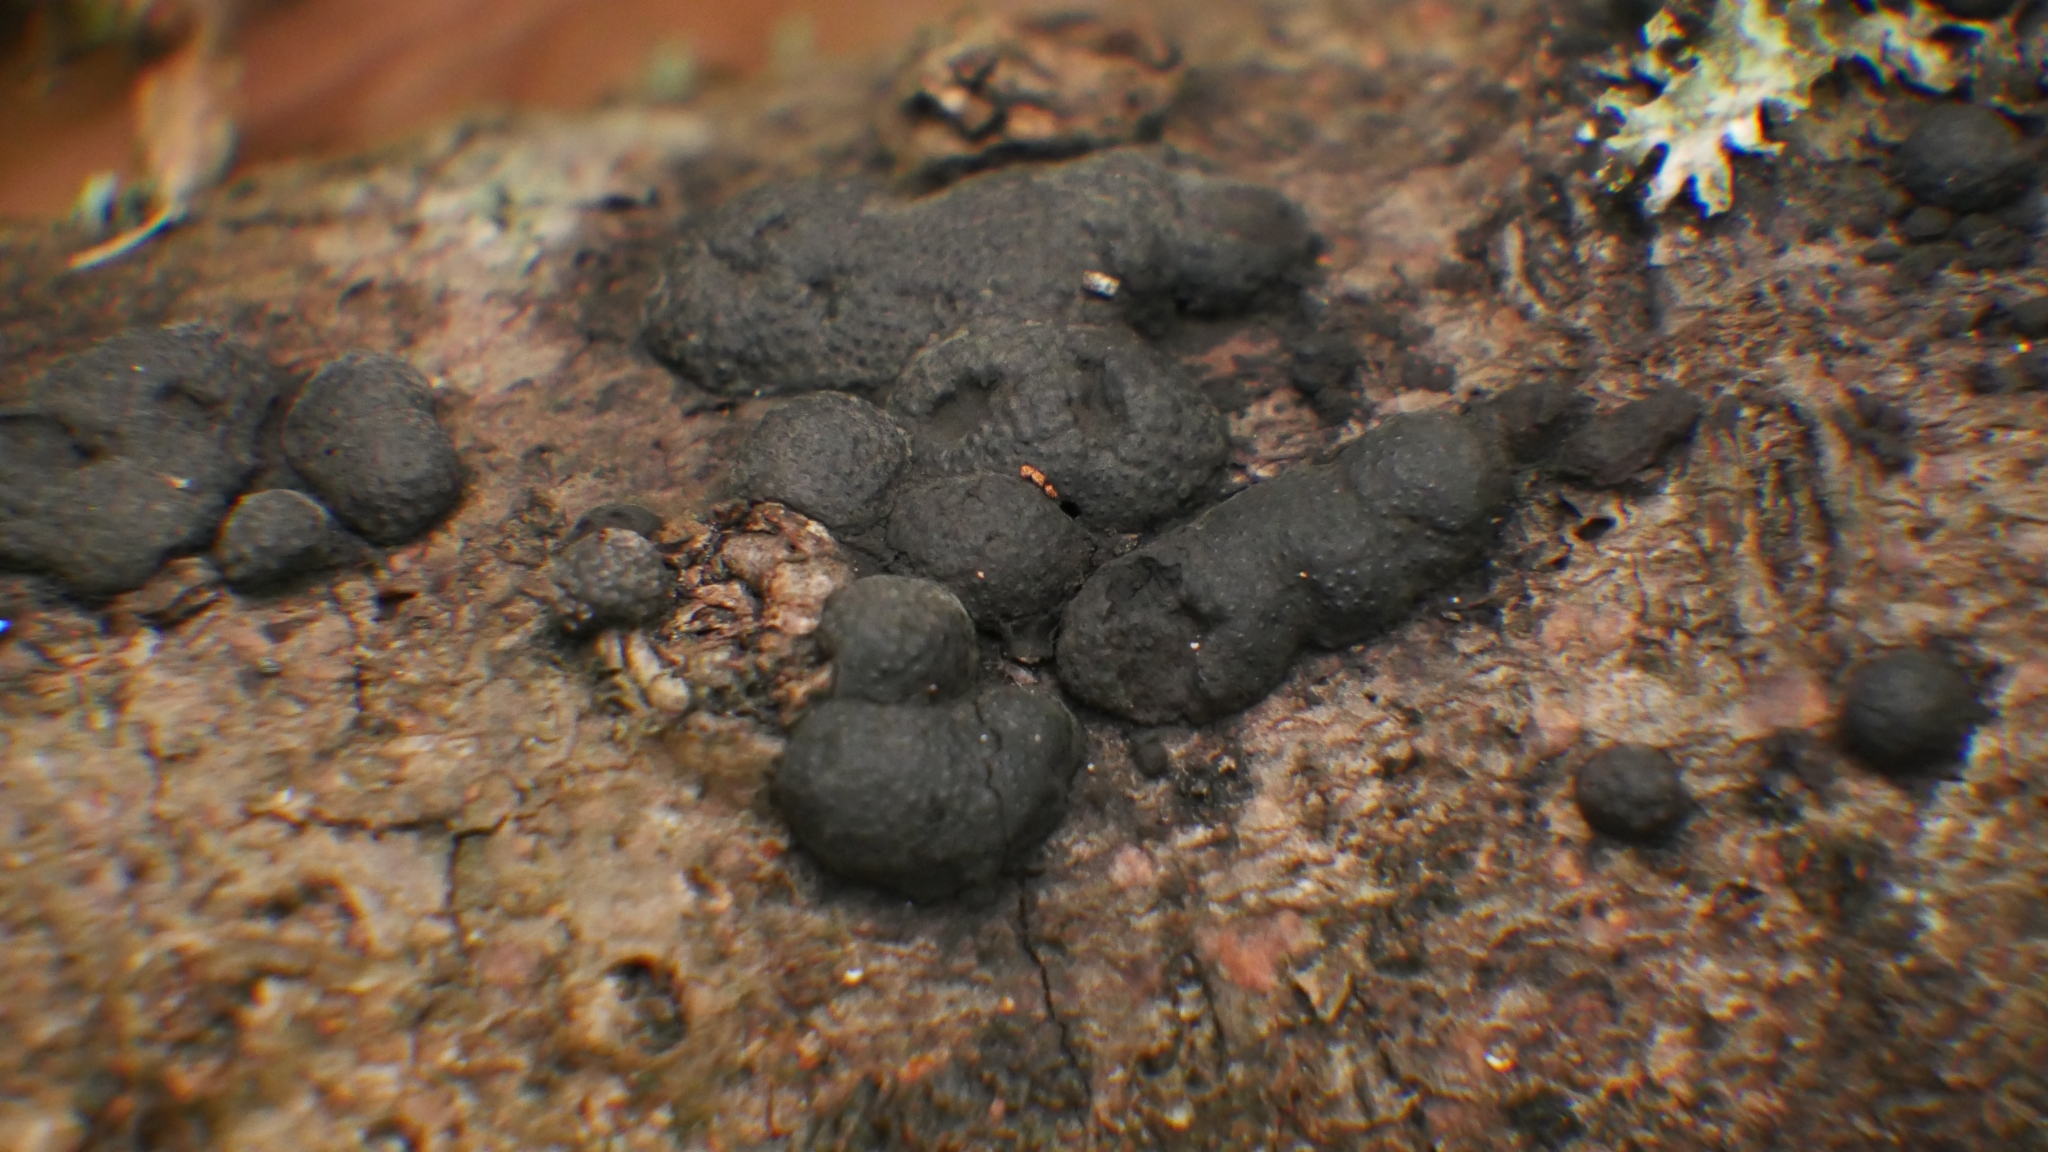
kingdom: Fungi
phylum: Ascomycota
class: Sordariomycetes
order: Xylariales
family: Hypoxylaceae
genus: Annulohypoxylon
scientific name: Annulohypoxylon thouarsianum
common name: Cramp balls
